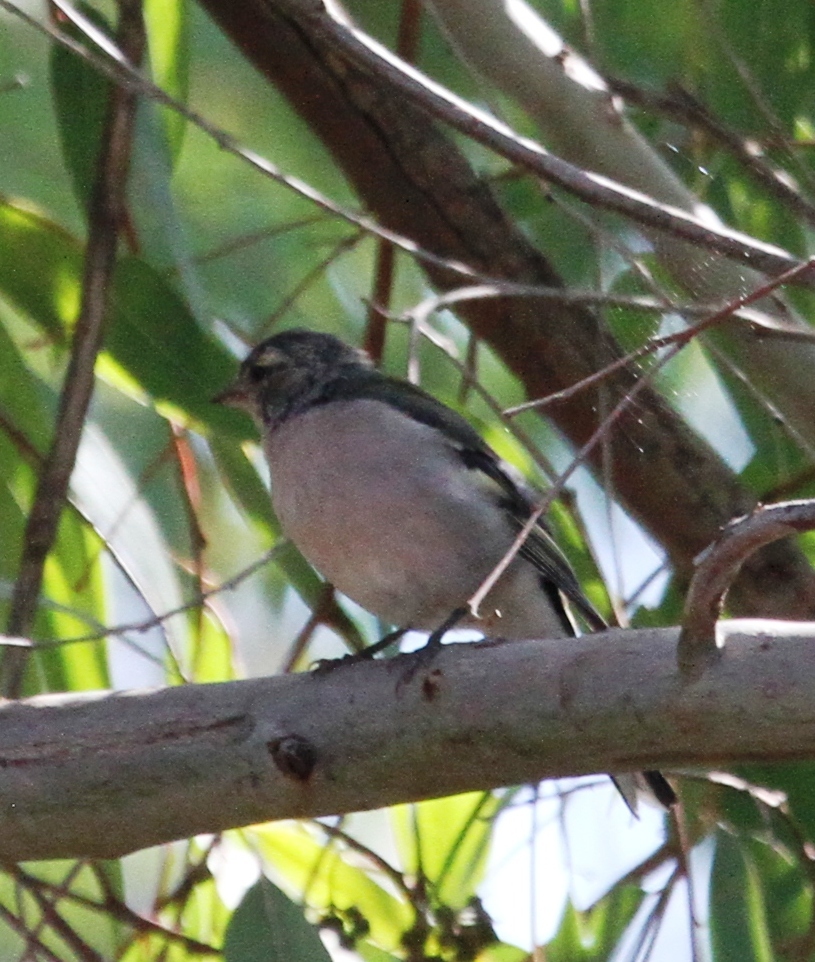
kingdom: Animalia
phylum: Chordata
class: Aves
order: Passeriformes
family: Fringillidae
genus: Fringilla
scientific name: Fringilla spodiogenys
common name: African chaffinch
